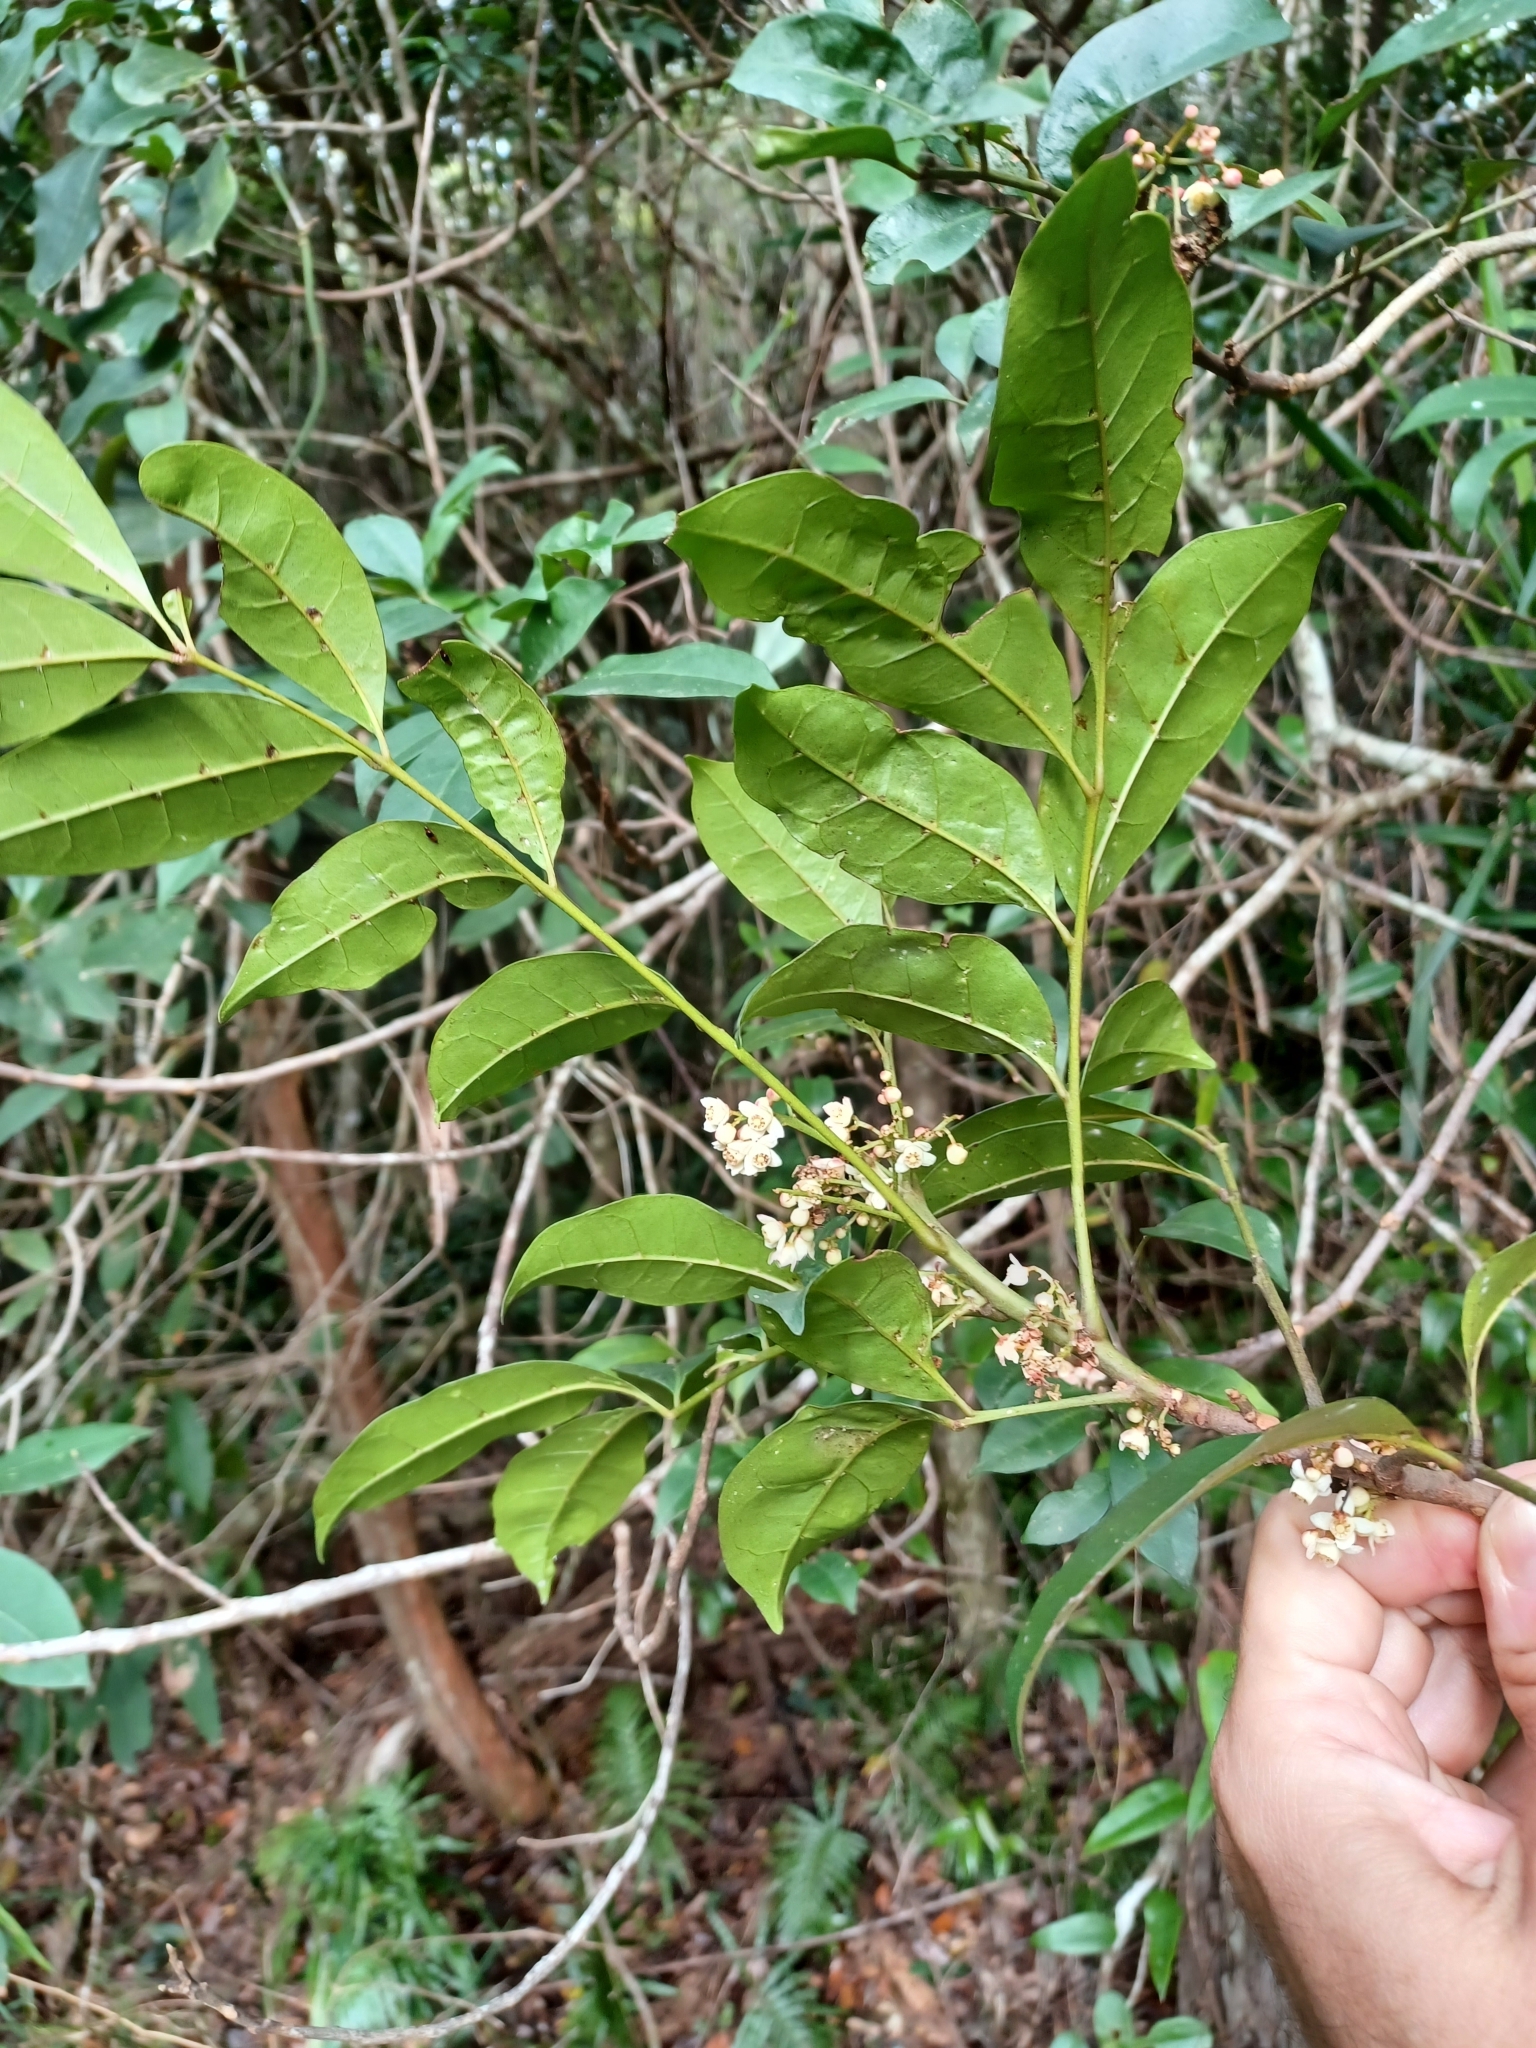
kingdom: Plantae
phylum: Tracheophyta
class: Magnoliopsida
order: Sapindales
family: Meliaceae
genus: Synoum
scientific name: Synoum glandulosum
